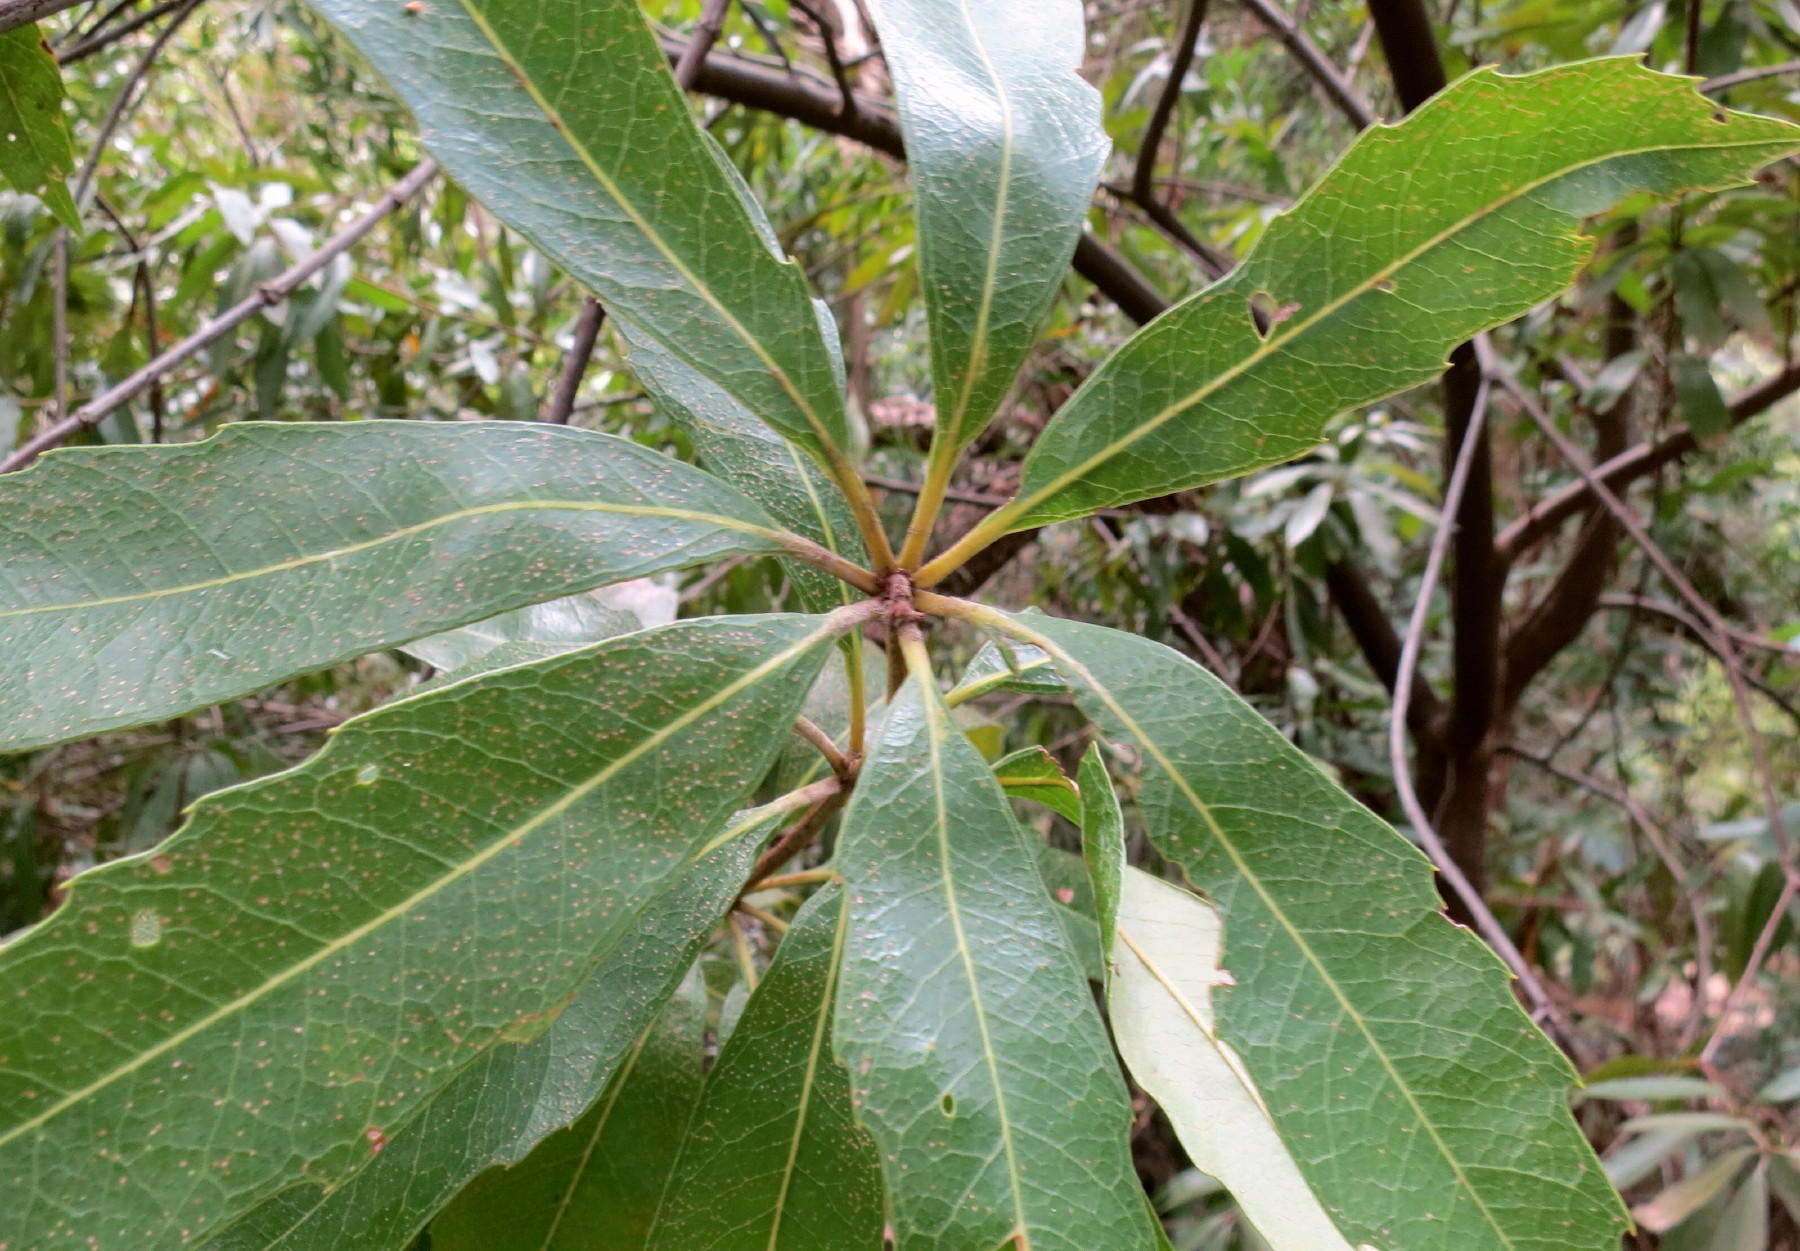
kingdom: Plantae
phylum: Tracheophyta
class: Magnoliopsida
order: Proteales
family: Proteaceae
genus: Brabejum
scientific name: Brabejum stellatifolium
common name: Wild almond
